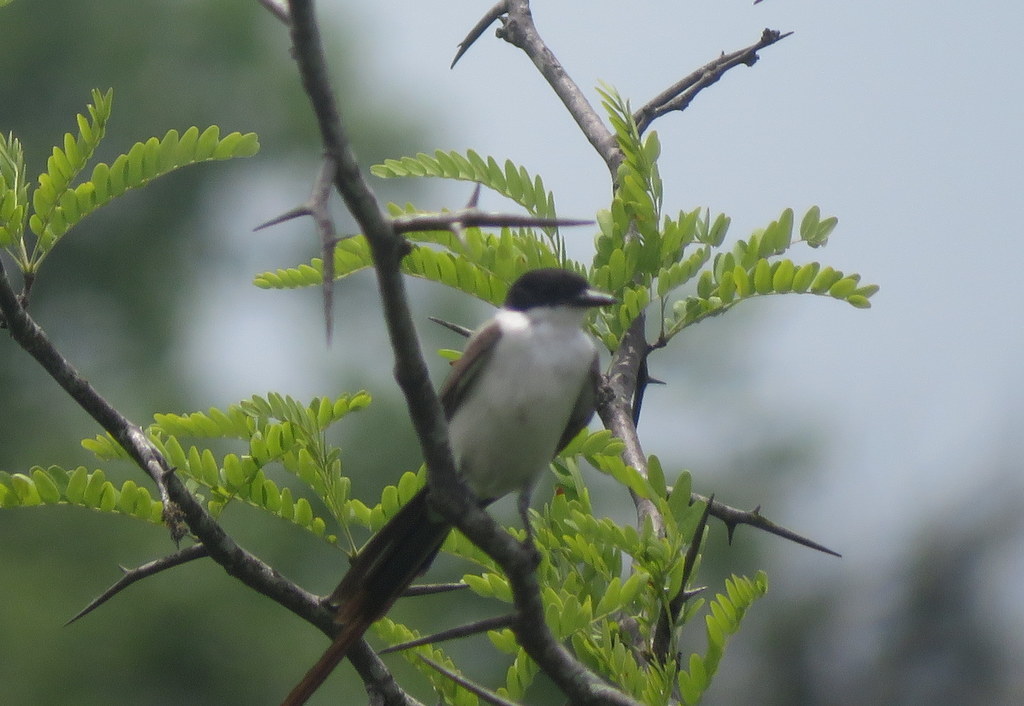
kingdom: Animalia
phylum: Chordata
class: Aves
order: Passeriformes
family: Tyrannidae
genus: Tyrannus
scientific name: Tyrannus savana
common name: Fork-tailed flycatcher
